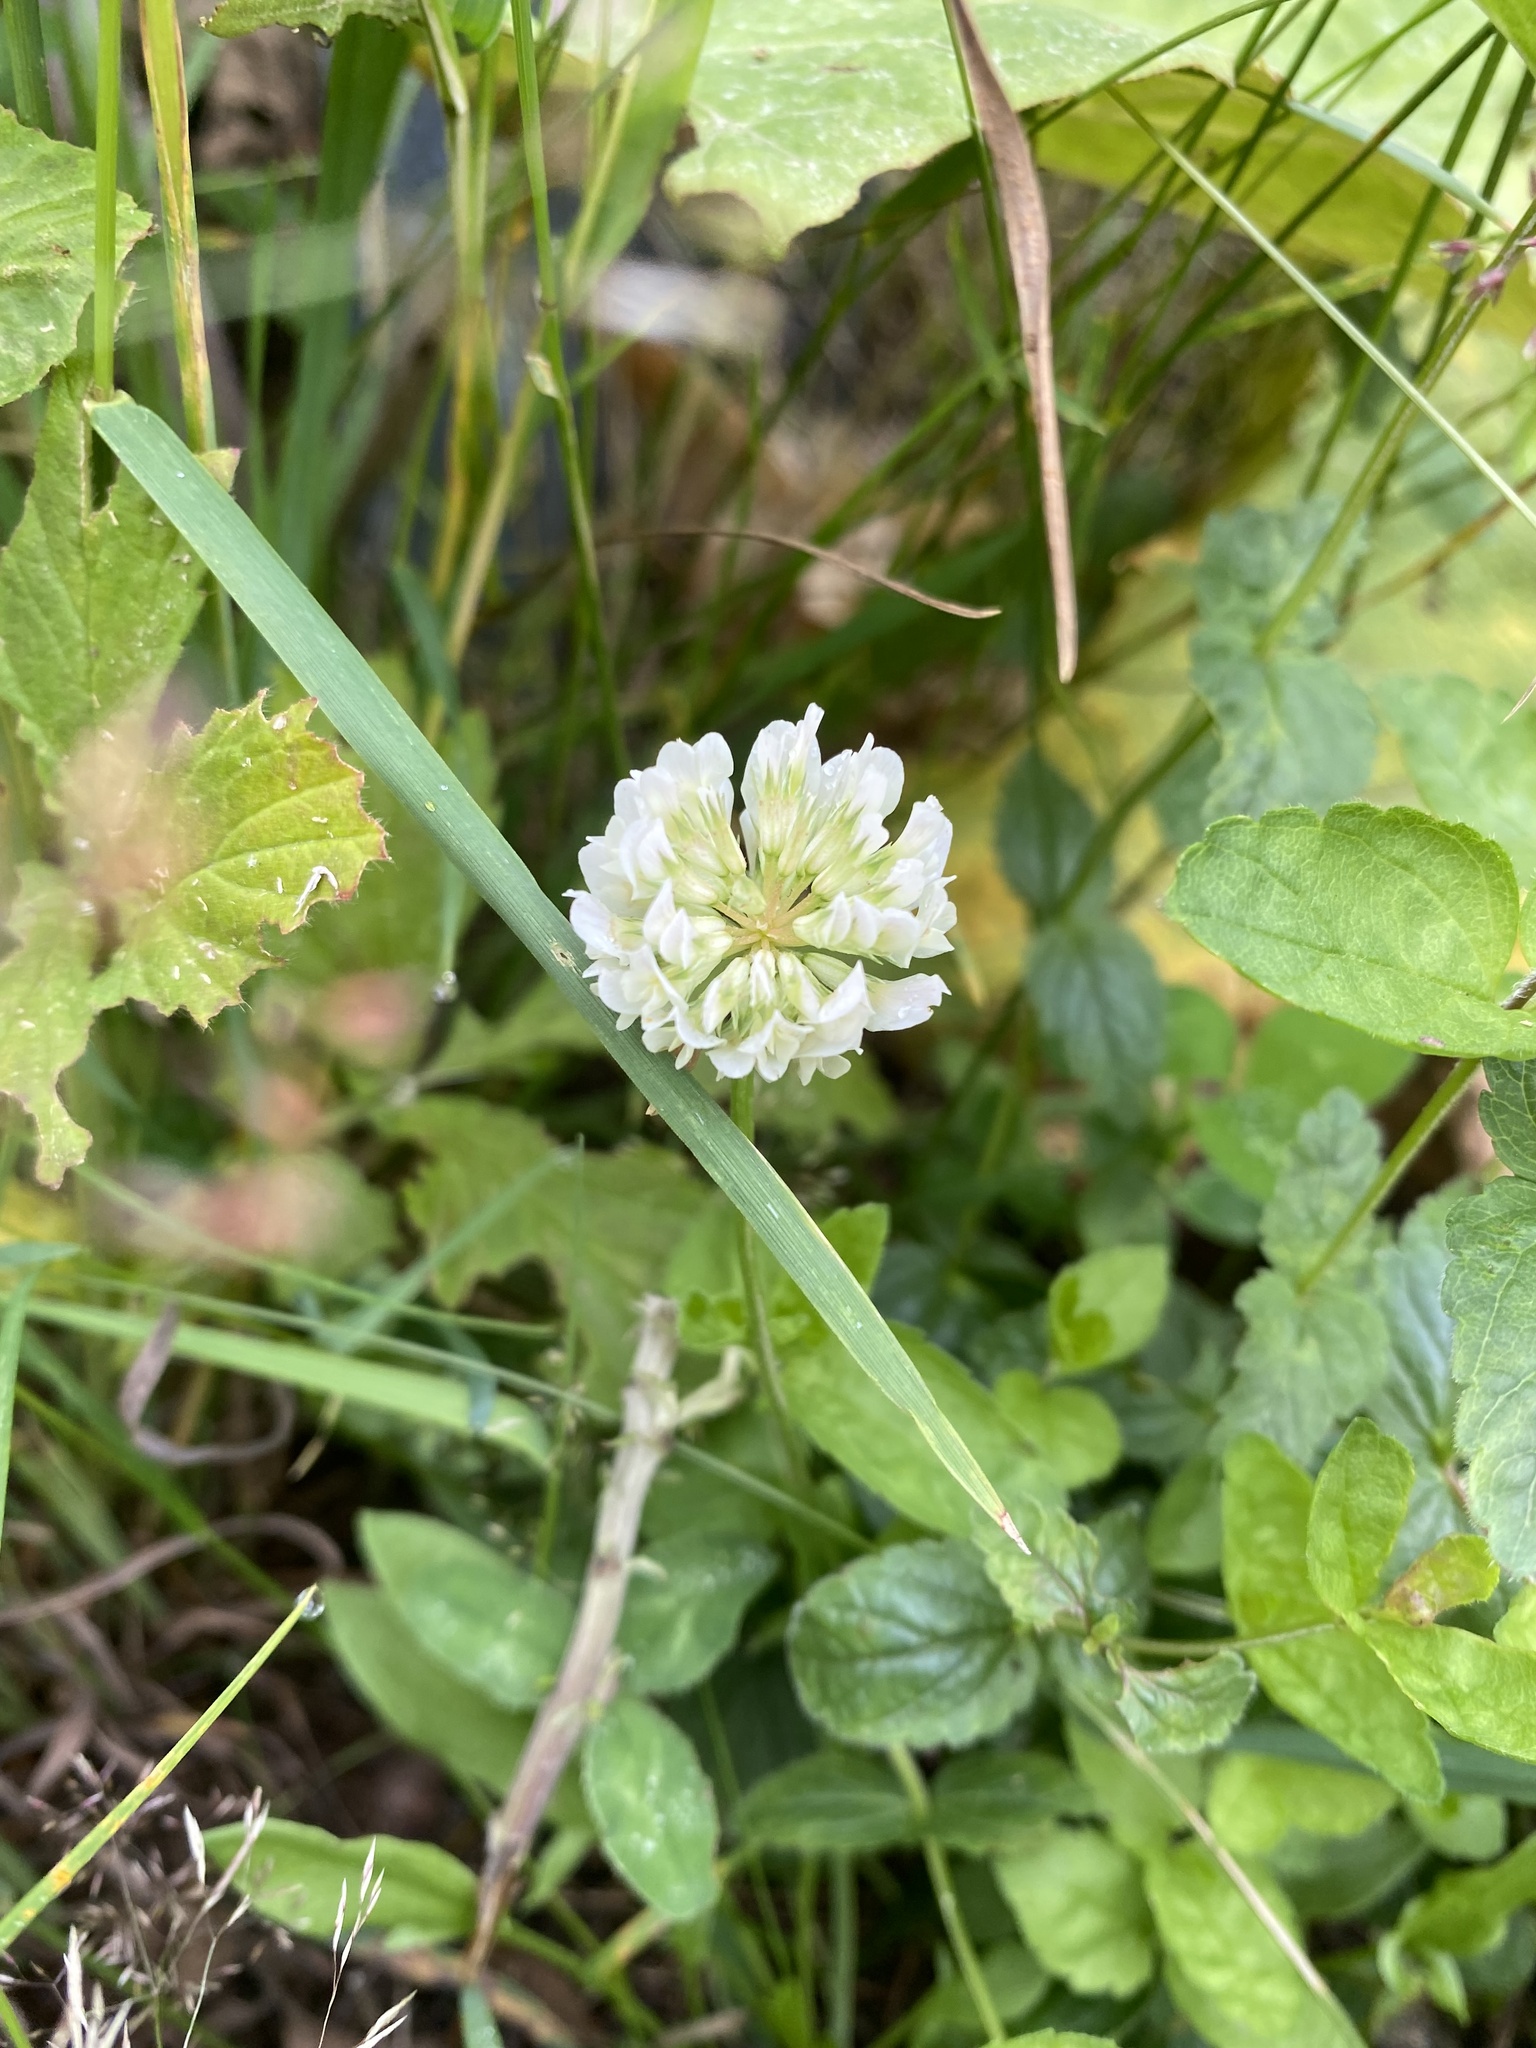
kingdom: Plantae
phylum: Tracheophyta
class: Magnoliopsida
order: Fabales
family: Fabaceae
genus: Trifolium
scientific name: Trifolium repens
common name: White clover
